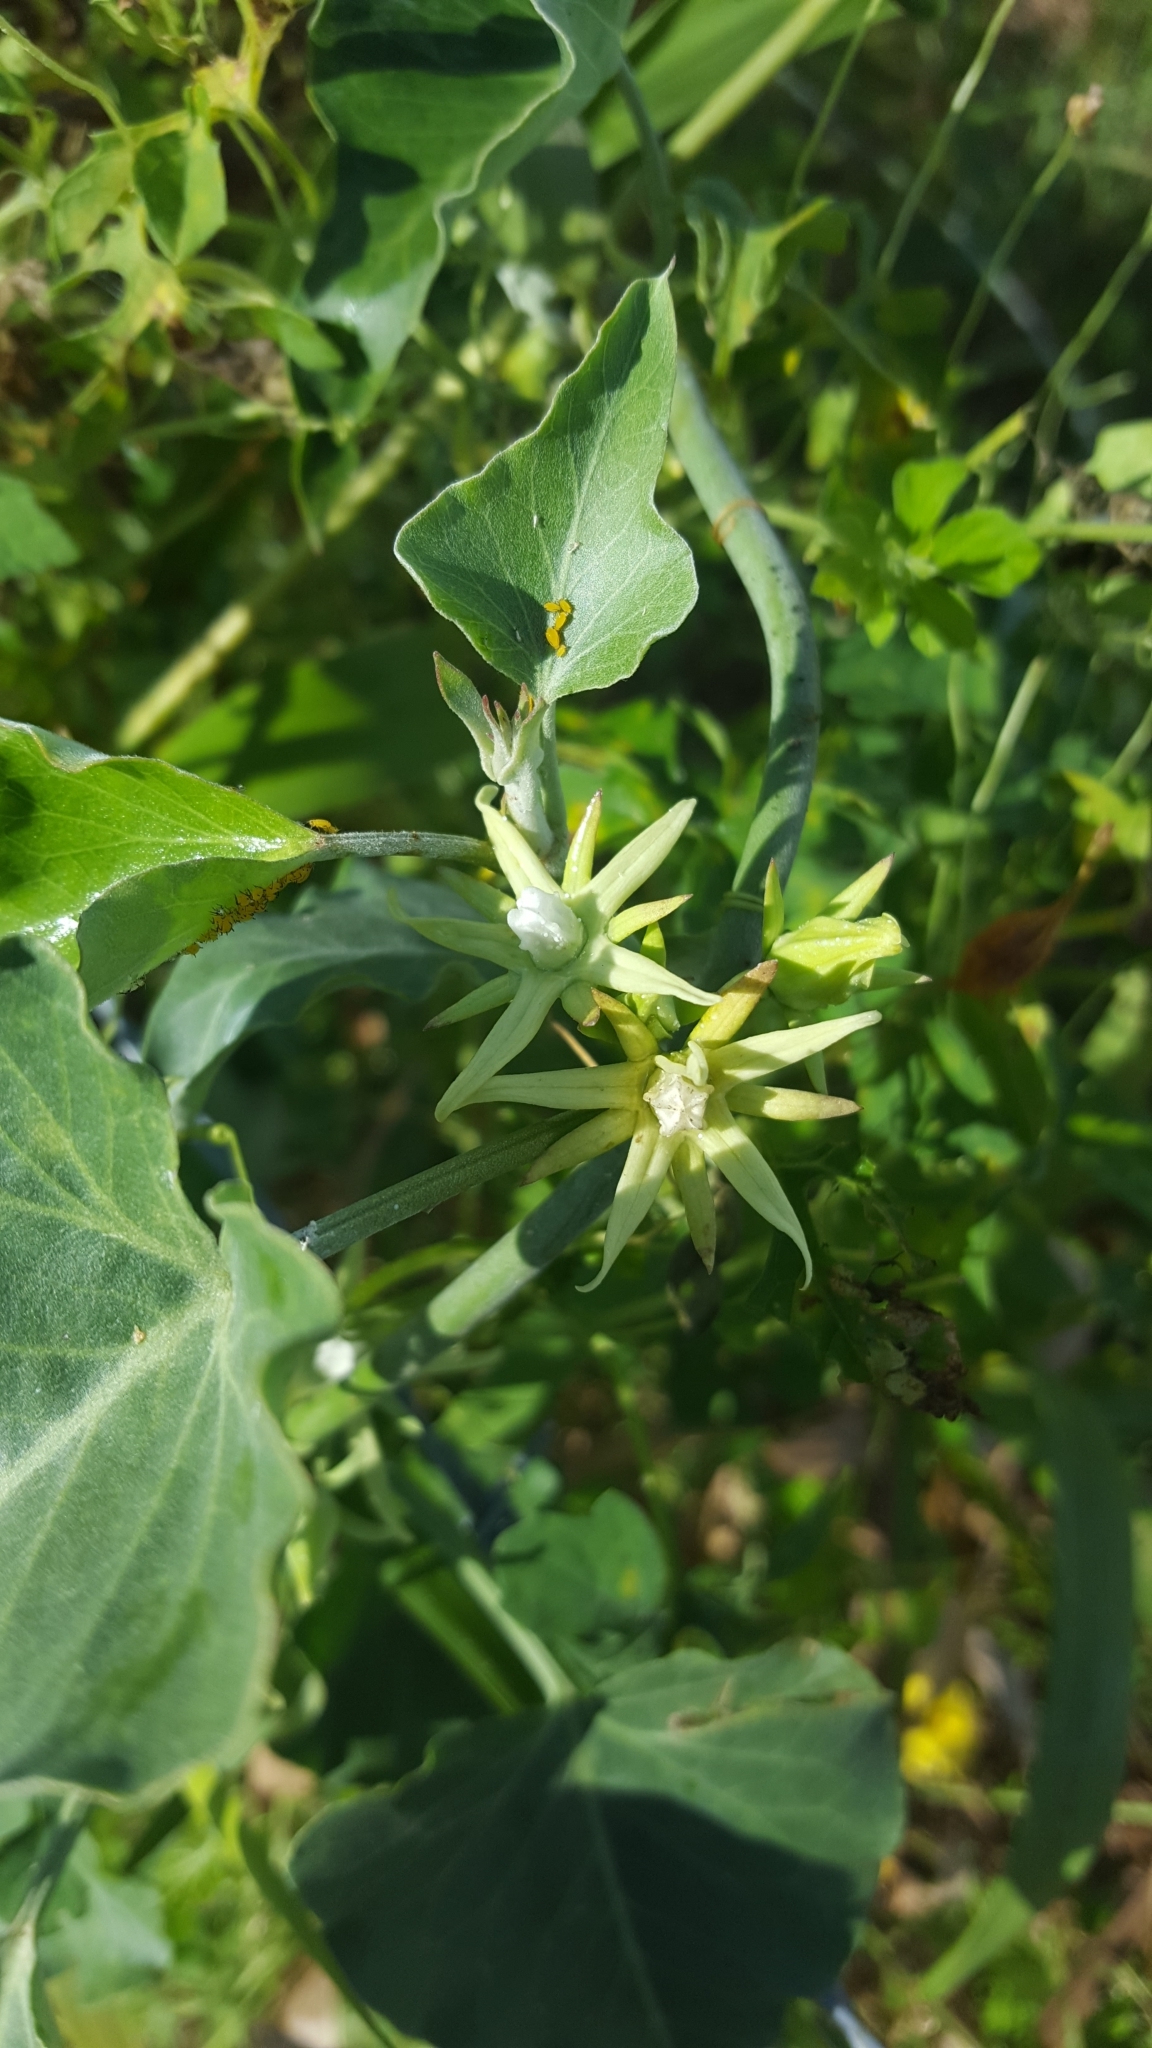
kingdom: Plantae
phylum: Tracheophyta
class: Magnoliopsida
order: Gentianales
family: Apocynaceae
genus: Araujia
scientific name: Araujia odorata
